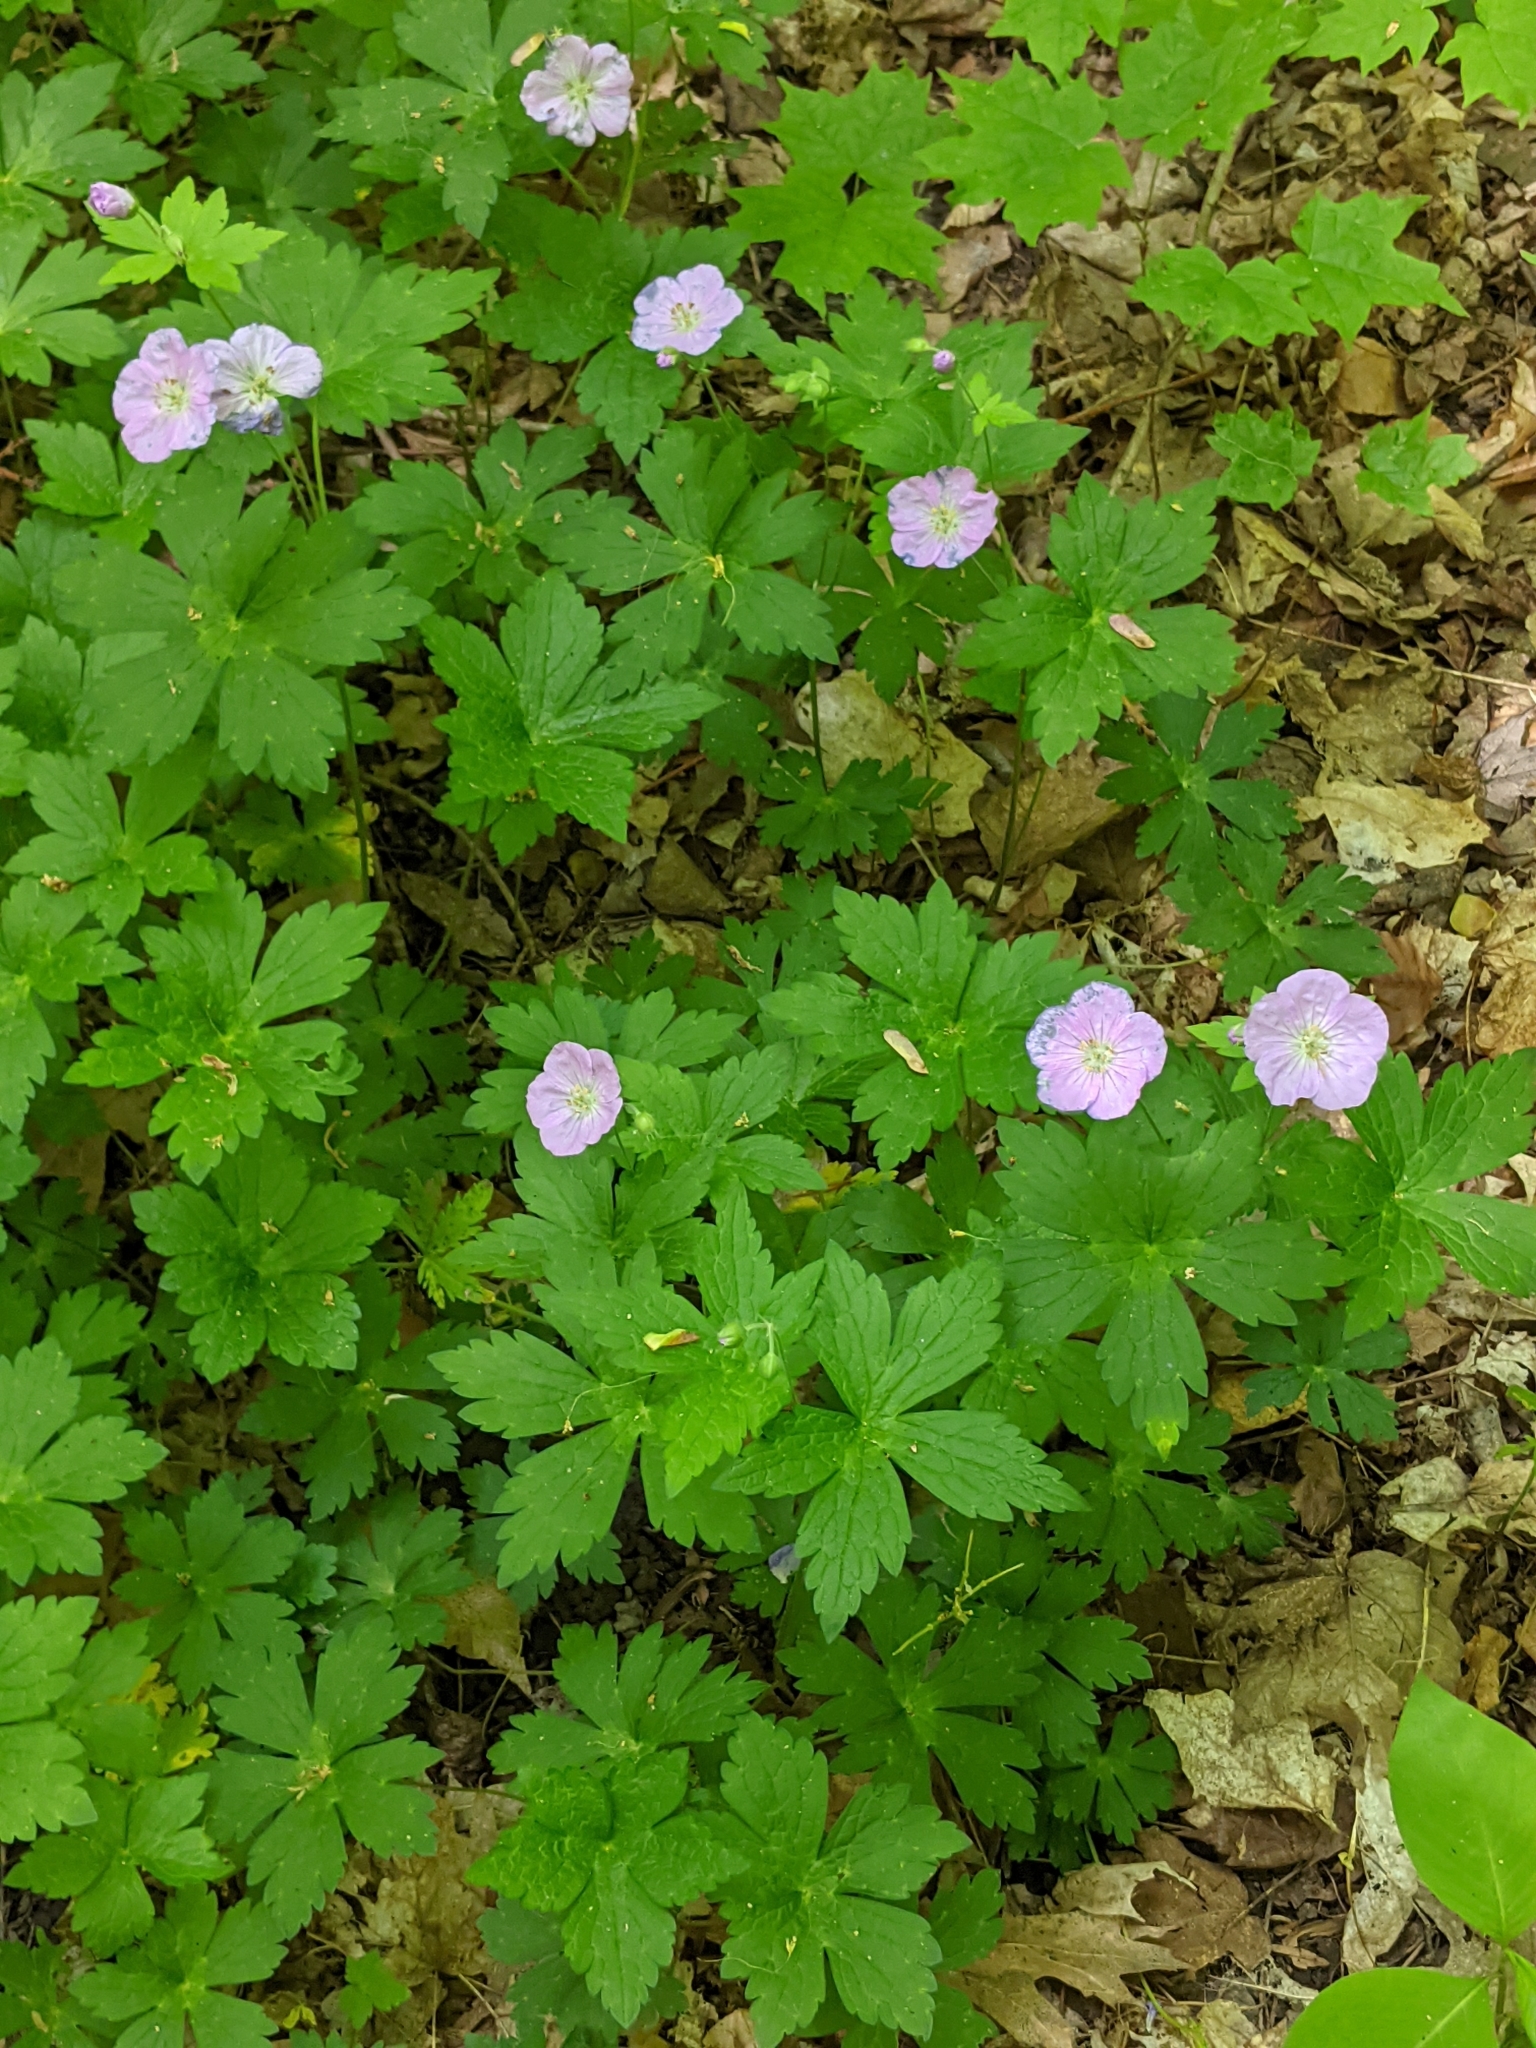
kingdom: Plantae
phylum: Tracheophyta
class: Magnoliopsida
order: Geraniales
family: Geraniaceae
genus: Geranium
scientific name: Geranium maculatum
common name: Spotted geranium
